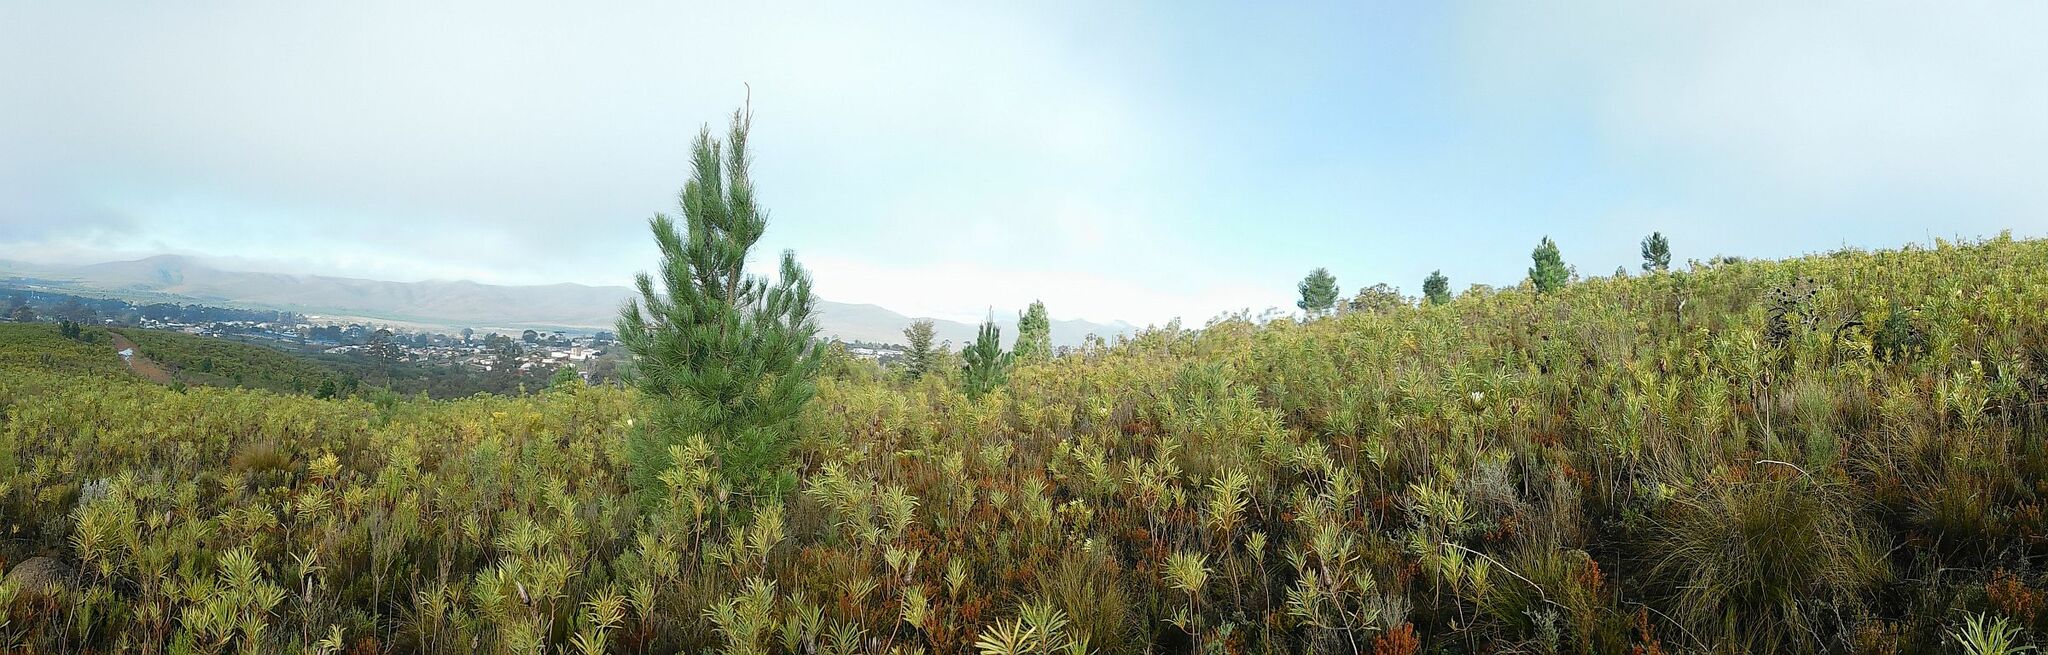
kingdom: Plantae
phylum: Tracheophyta
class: Pinopsida
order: Pinales
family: Pinaceae
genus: Pinus
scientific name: Pinus pinaster
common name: Maritime pine
